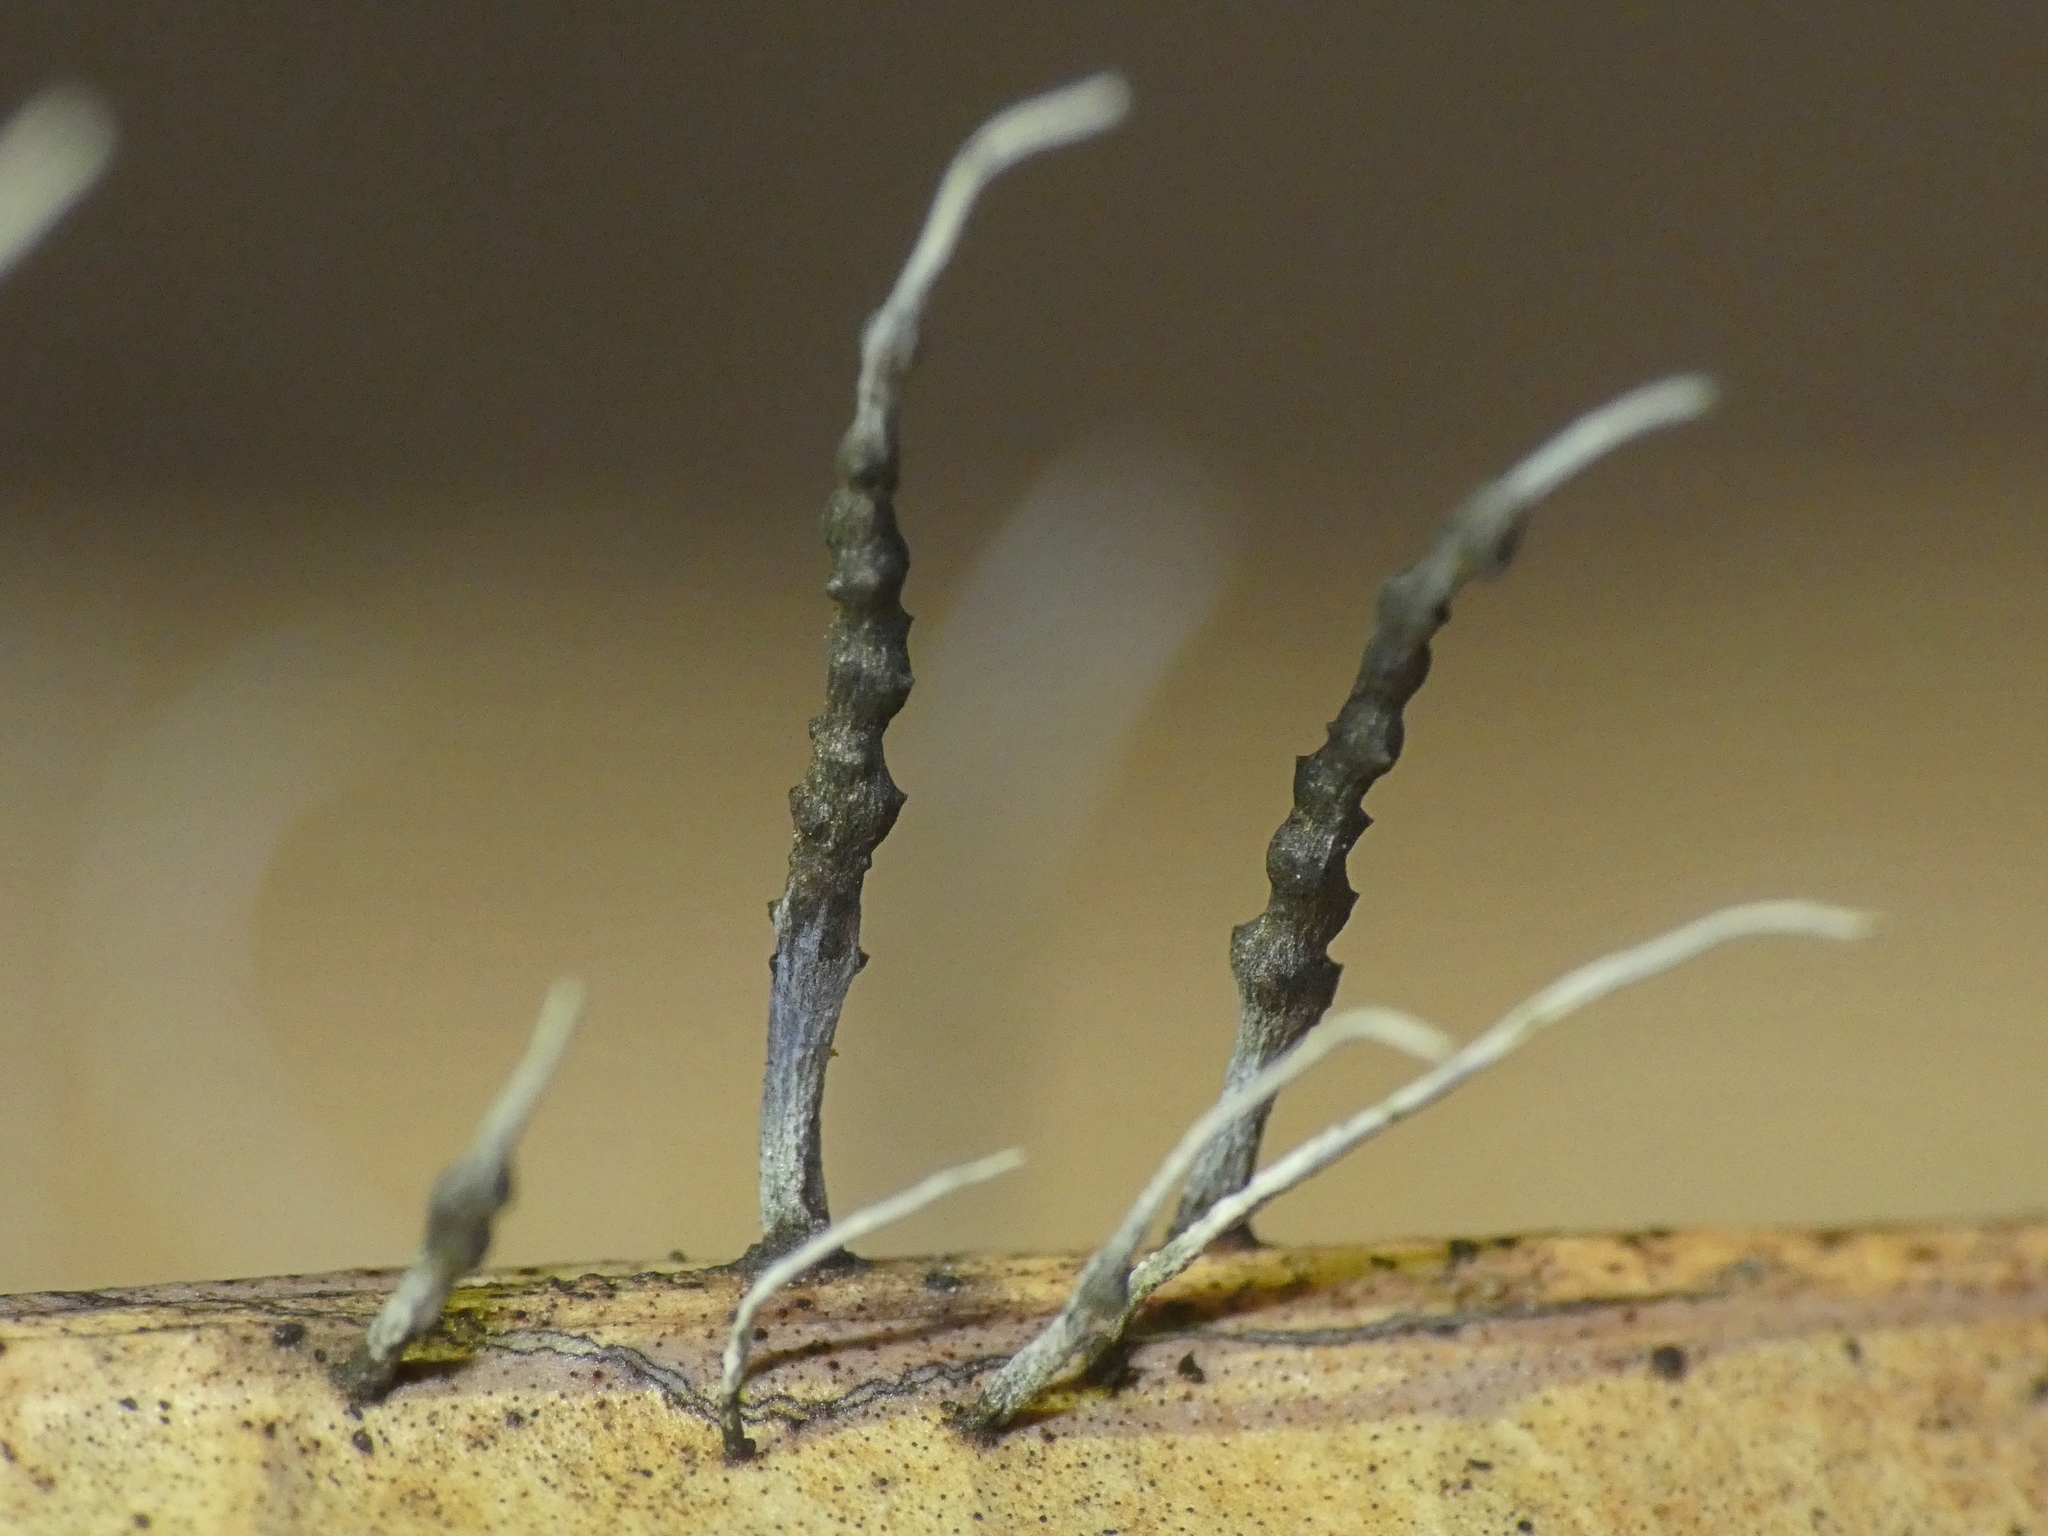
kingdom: Fungi
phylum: Ascomycota
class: Sordariomycetes
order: Xylariales
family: Xylariaceae
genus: Xylaria
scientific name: Xylaria filiformis
